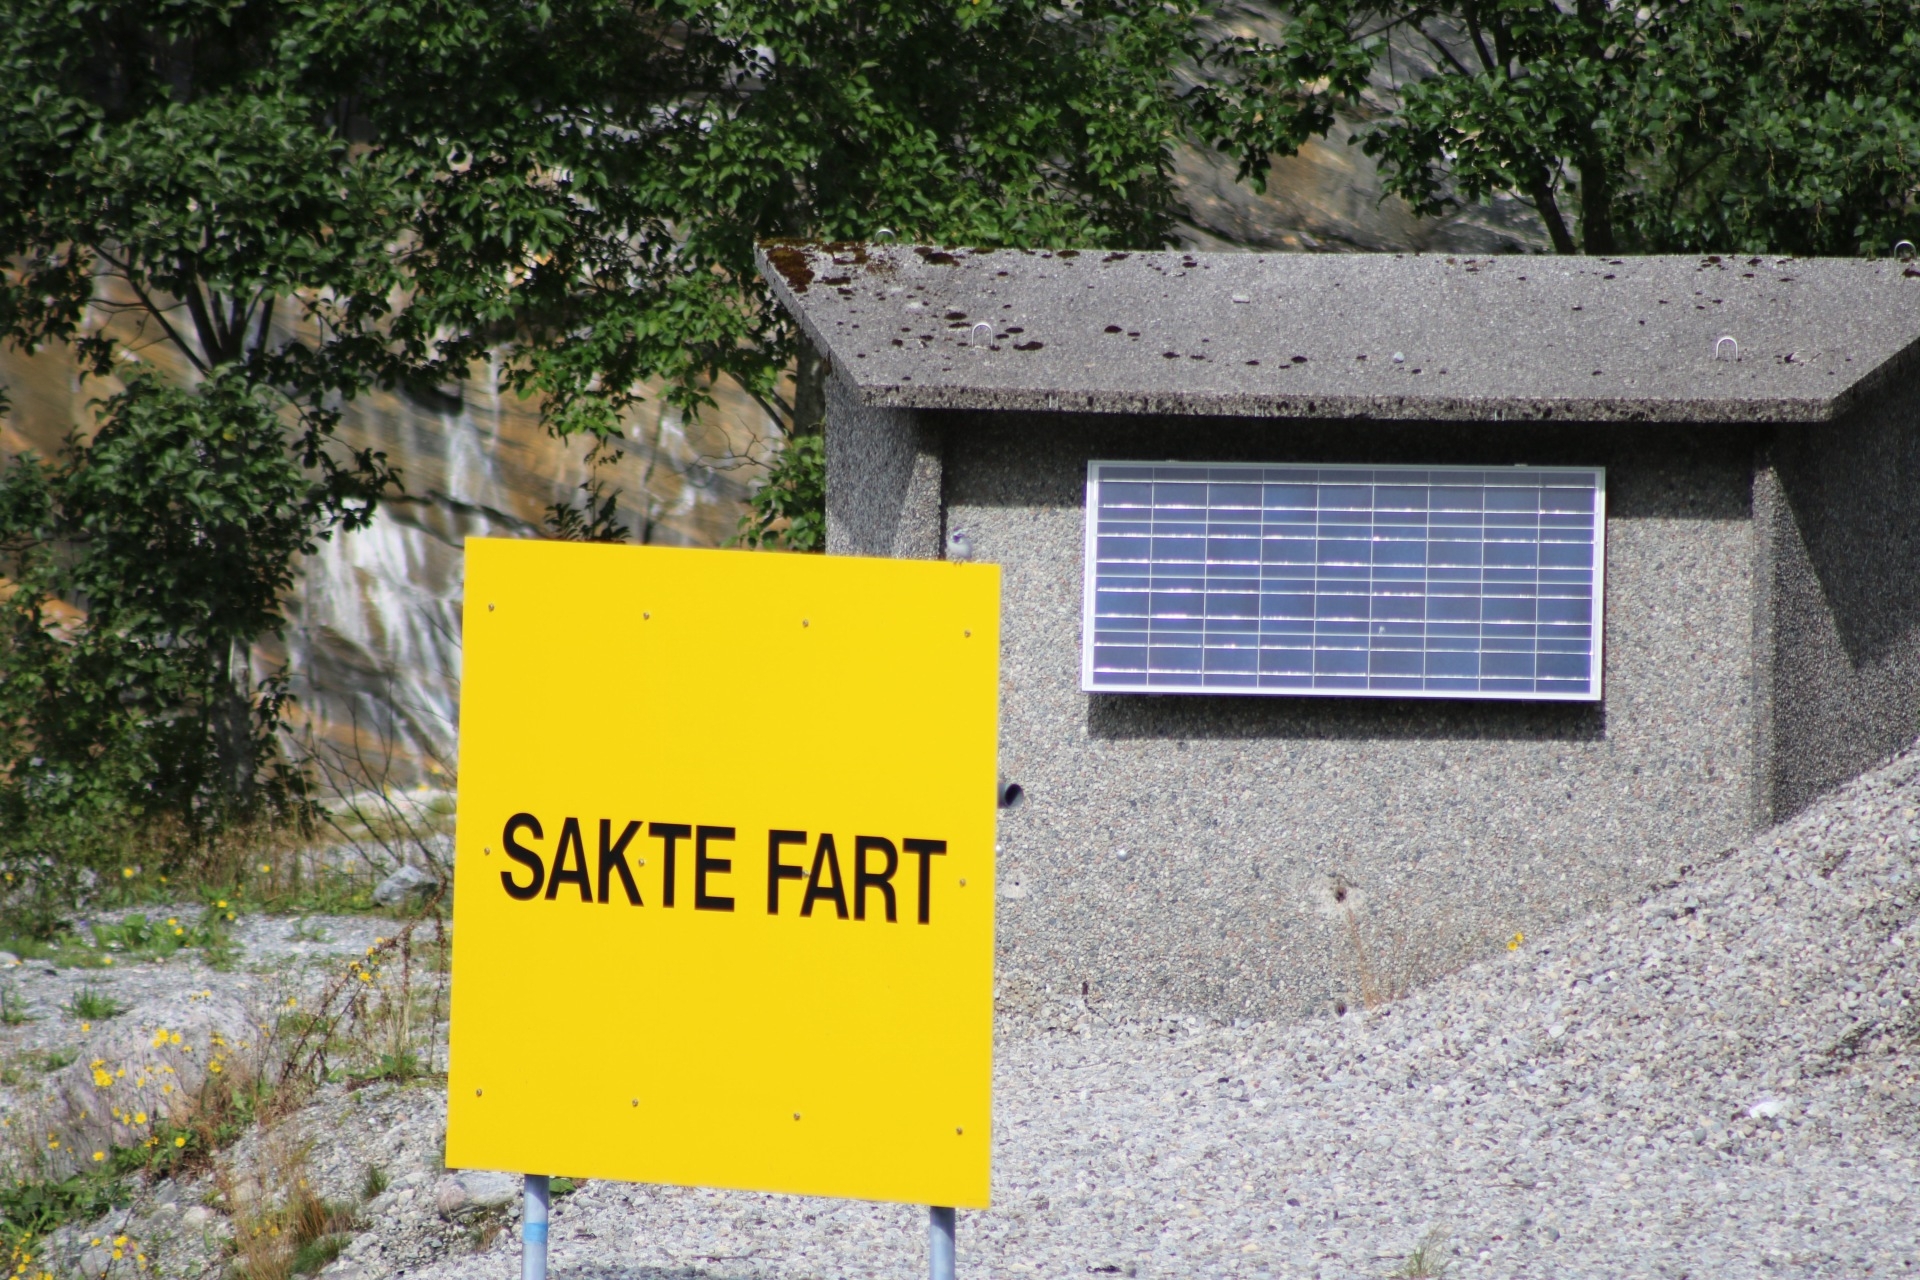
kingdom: Animalia
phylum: Chordata
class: Aves
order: Passeriformes
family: Motacillidae
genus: Motacilla
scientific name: Motacilla alba
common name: White wagtail
